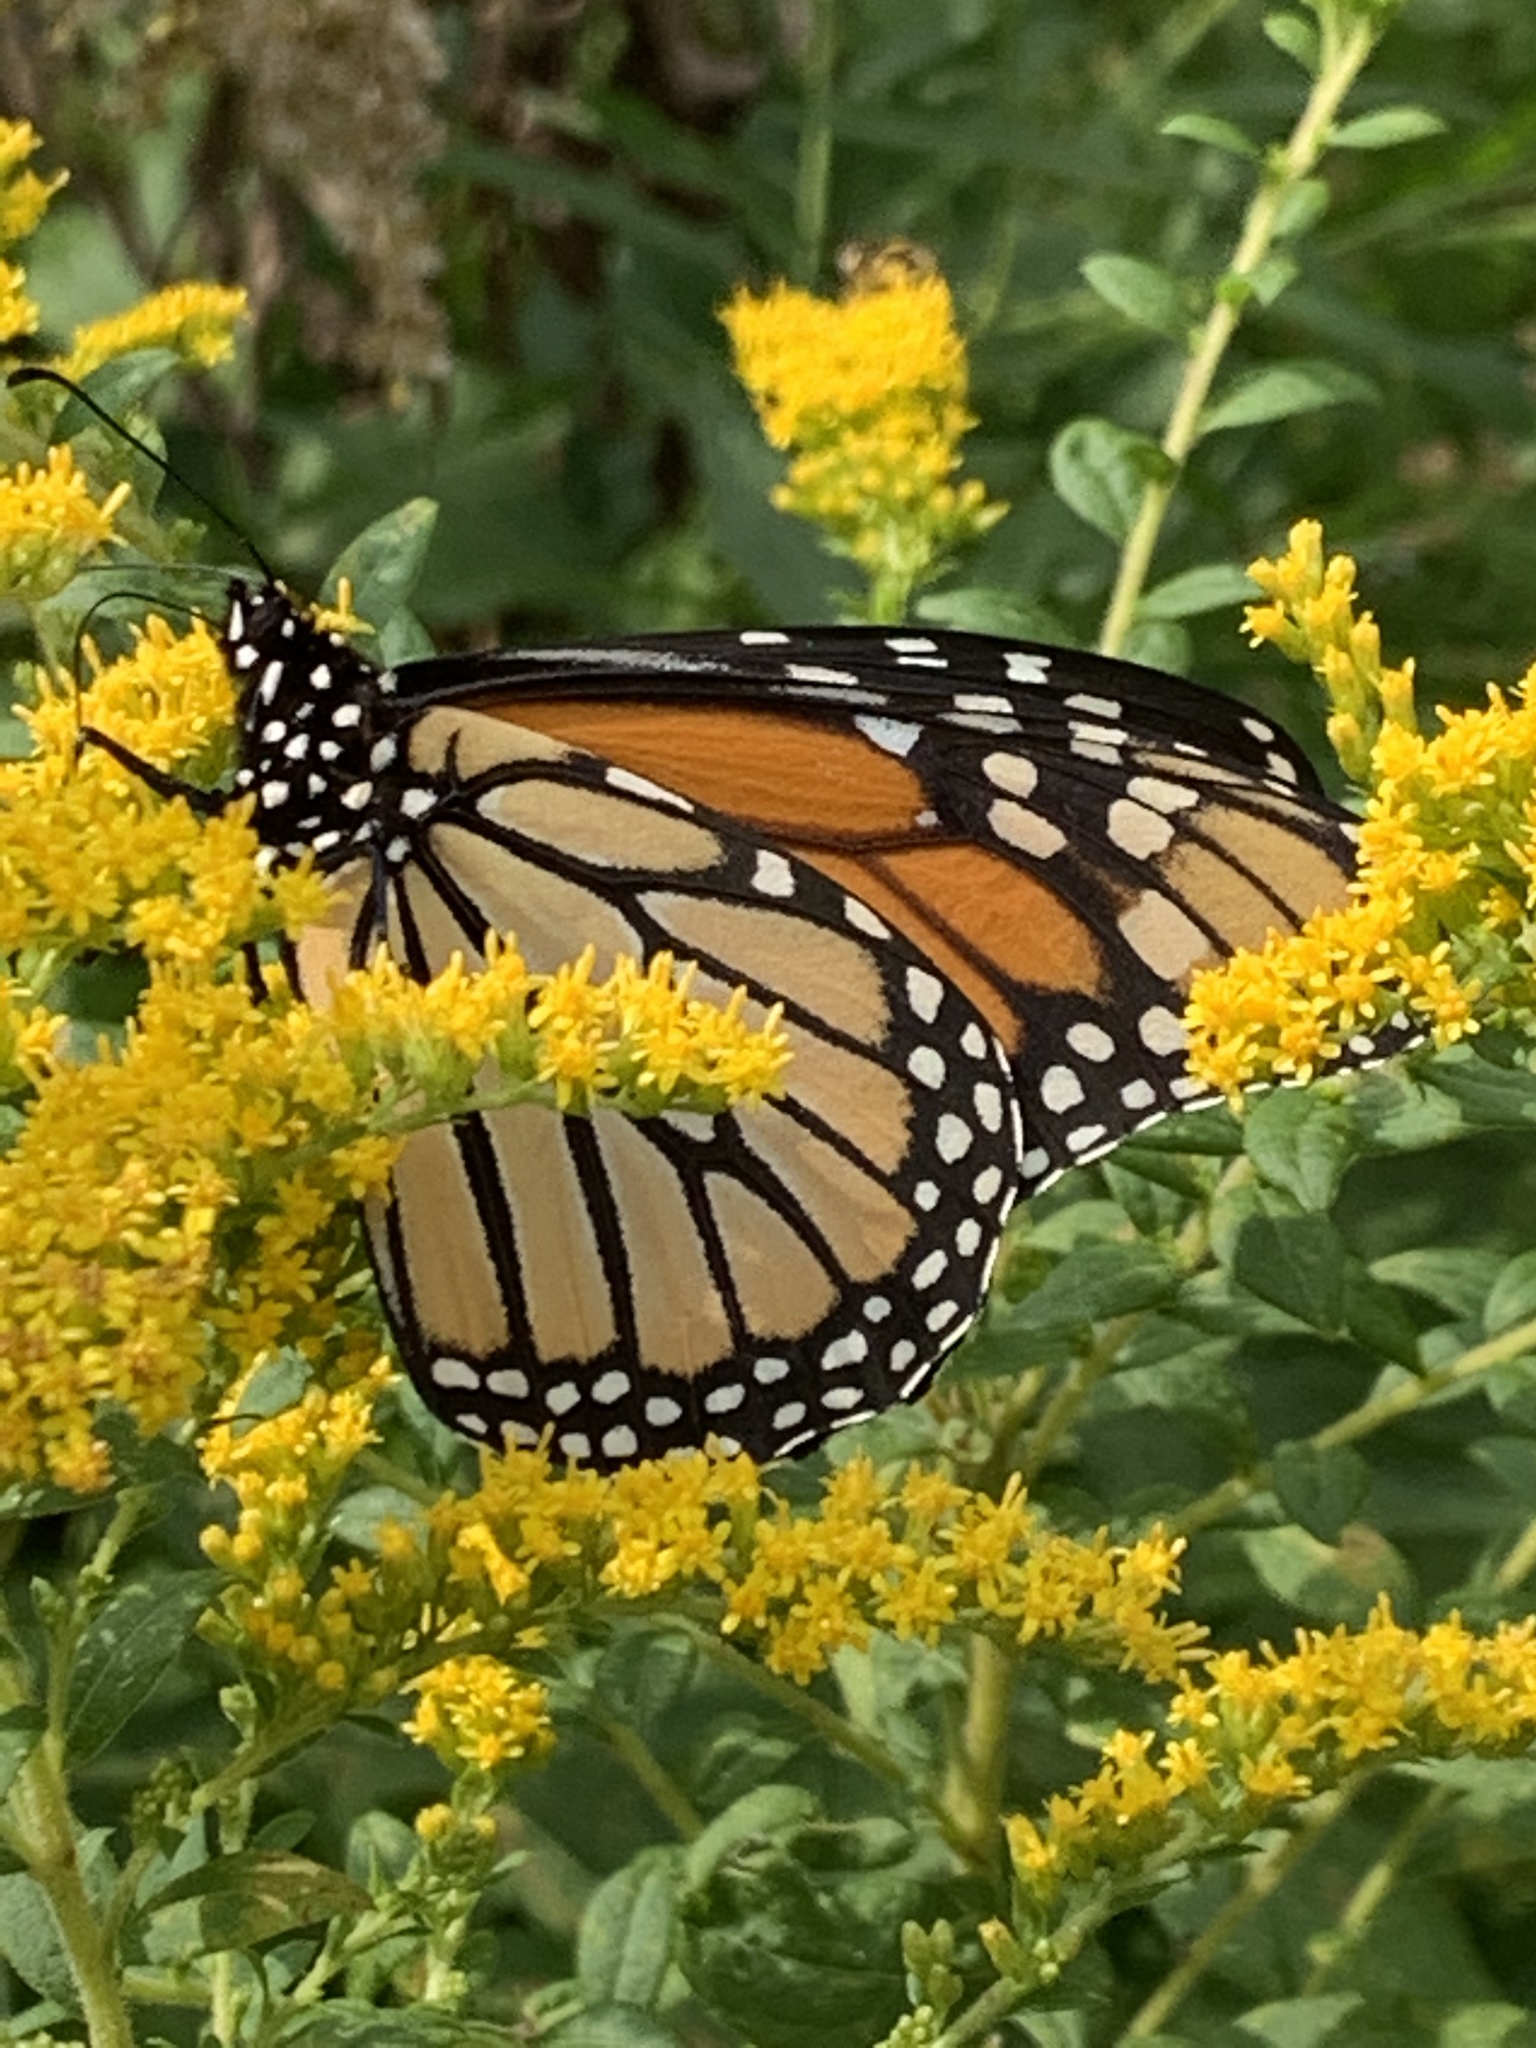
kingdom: Animalia
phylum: Arthropoda
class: Insecta
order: Lepidoptera
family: Nymphalidae
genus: Danaus
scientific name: Danaus plexippus
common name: Monarch
